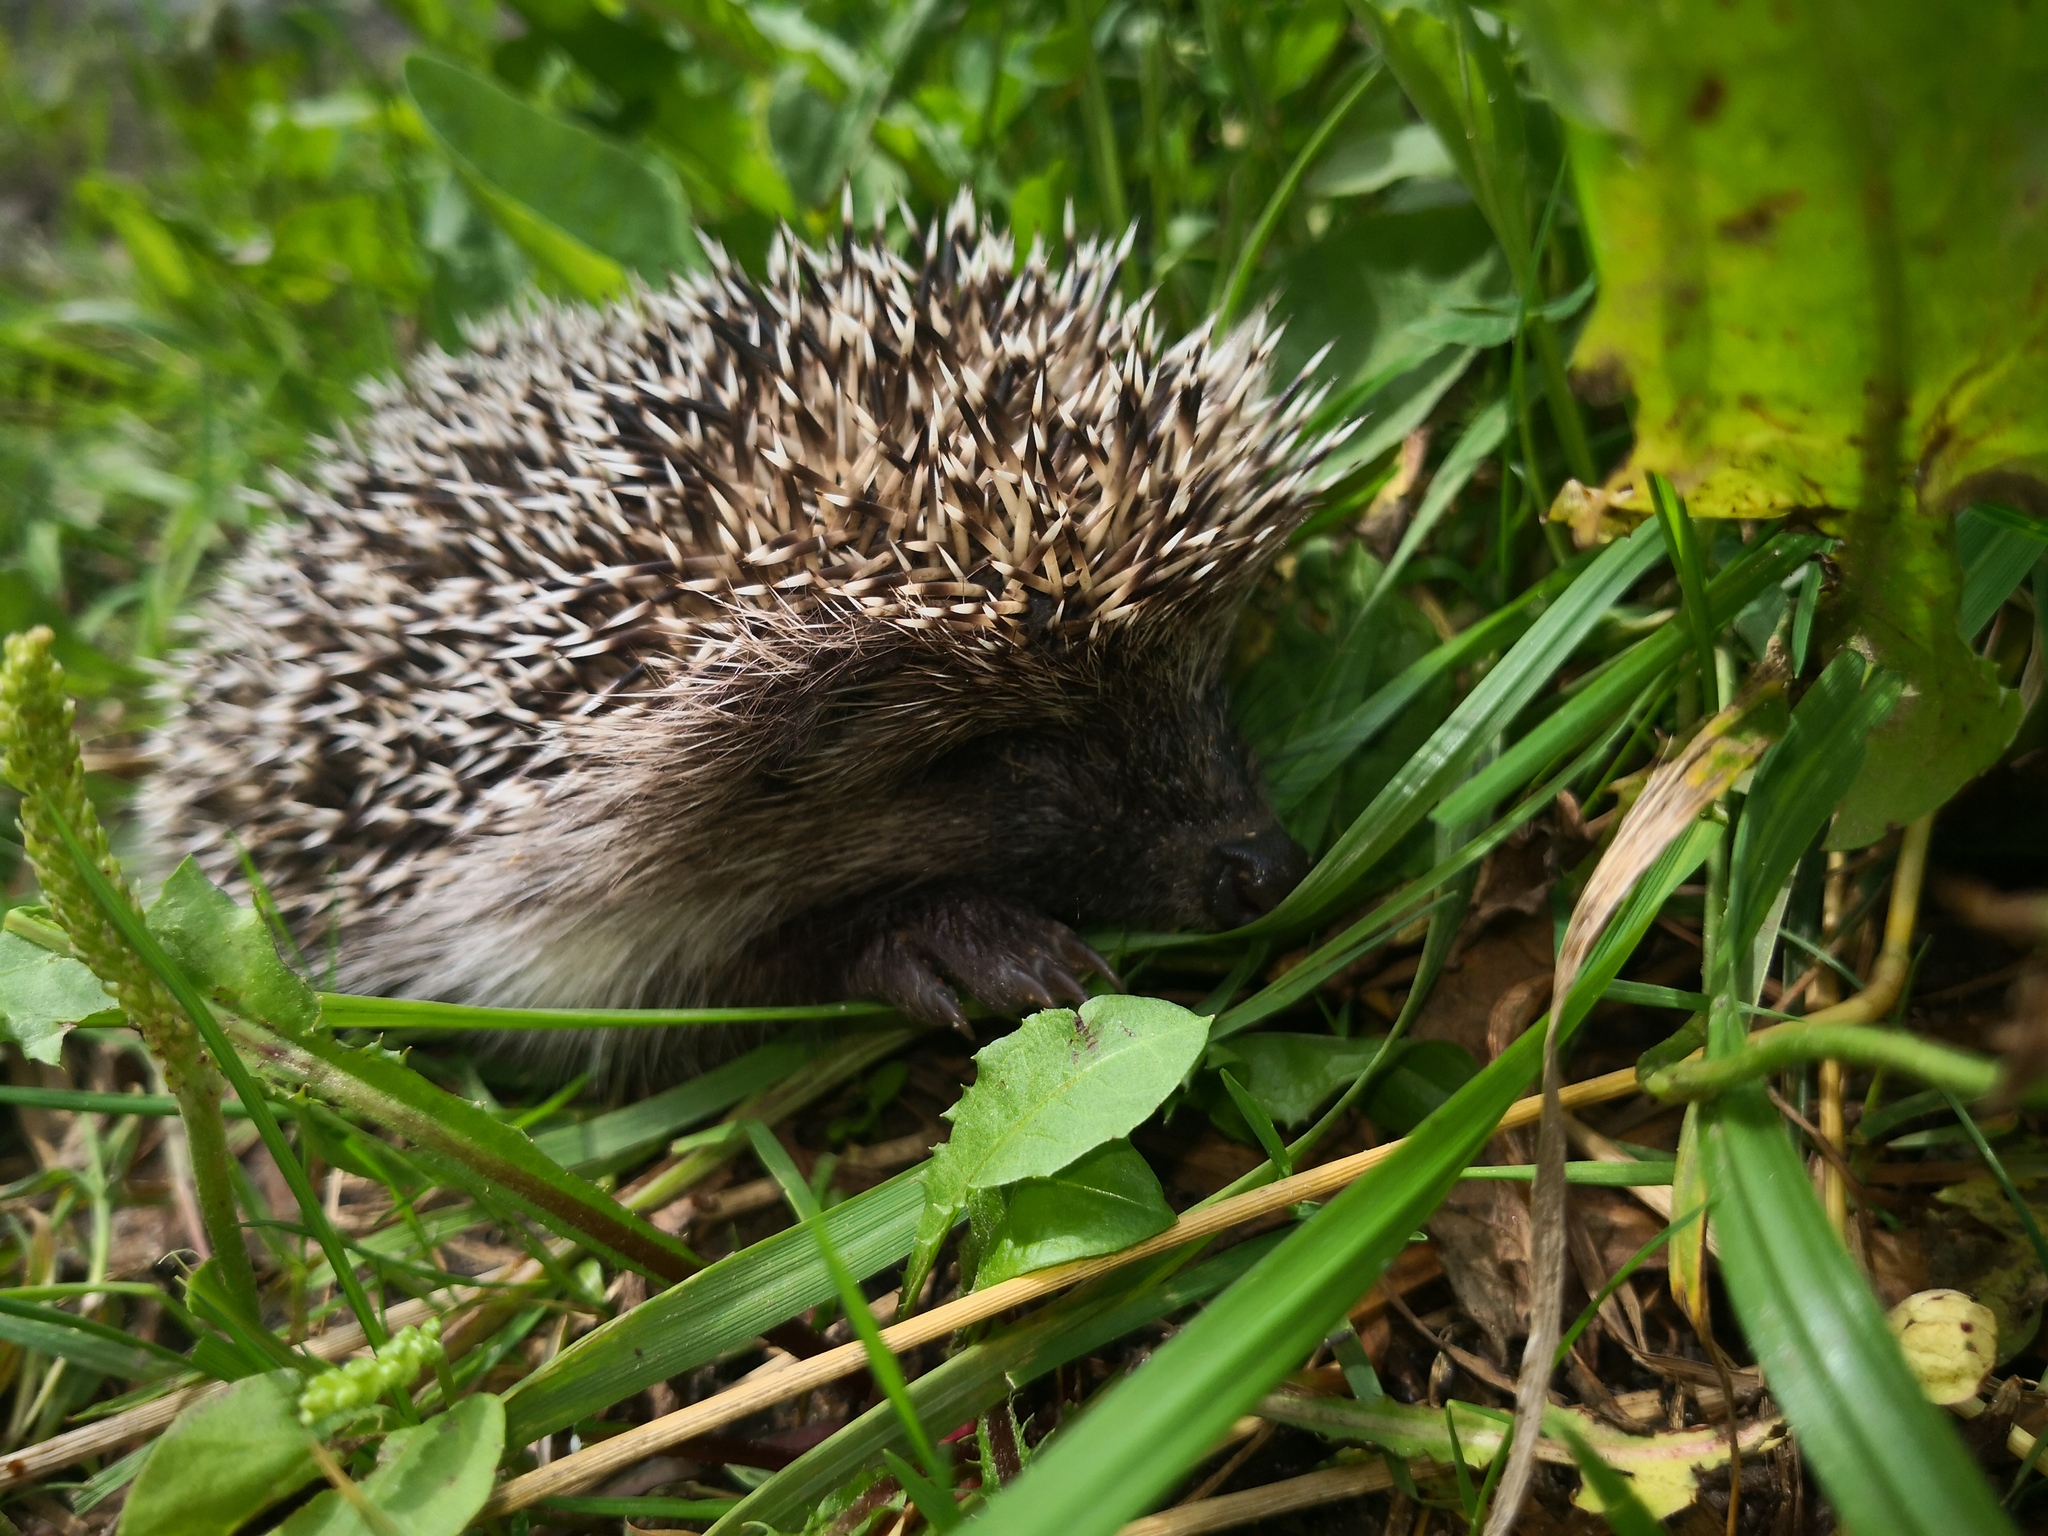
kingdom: Animalia
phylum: Chordata
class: Mammalia
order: Erinaceomorpha
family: Erinaceidae
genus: Erinaceus
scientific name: Erinaceus roumanicus
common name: Northern white-breasted hedgehog
